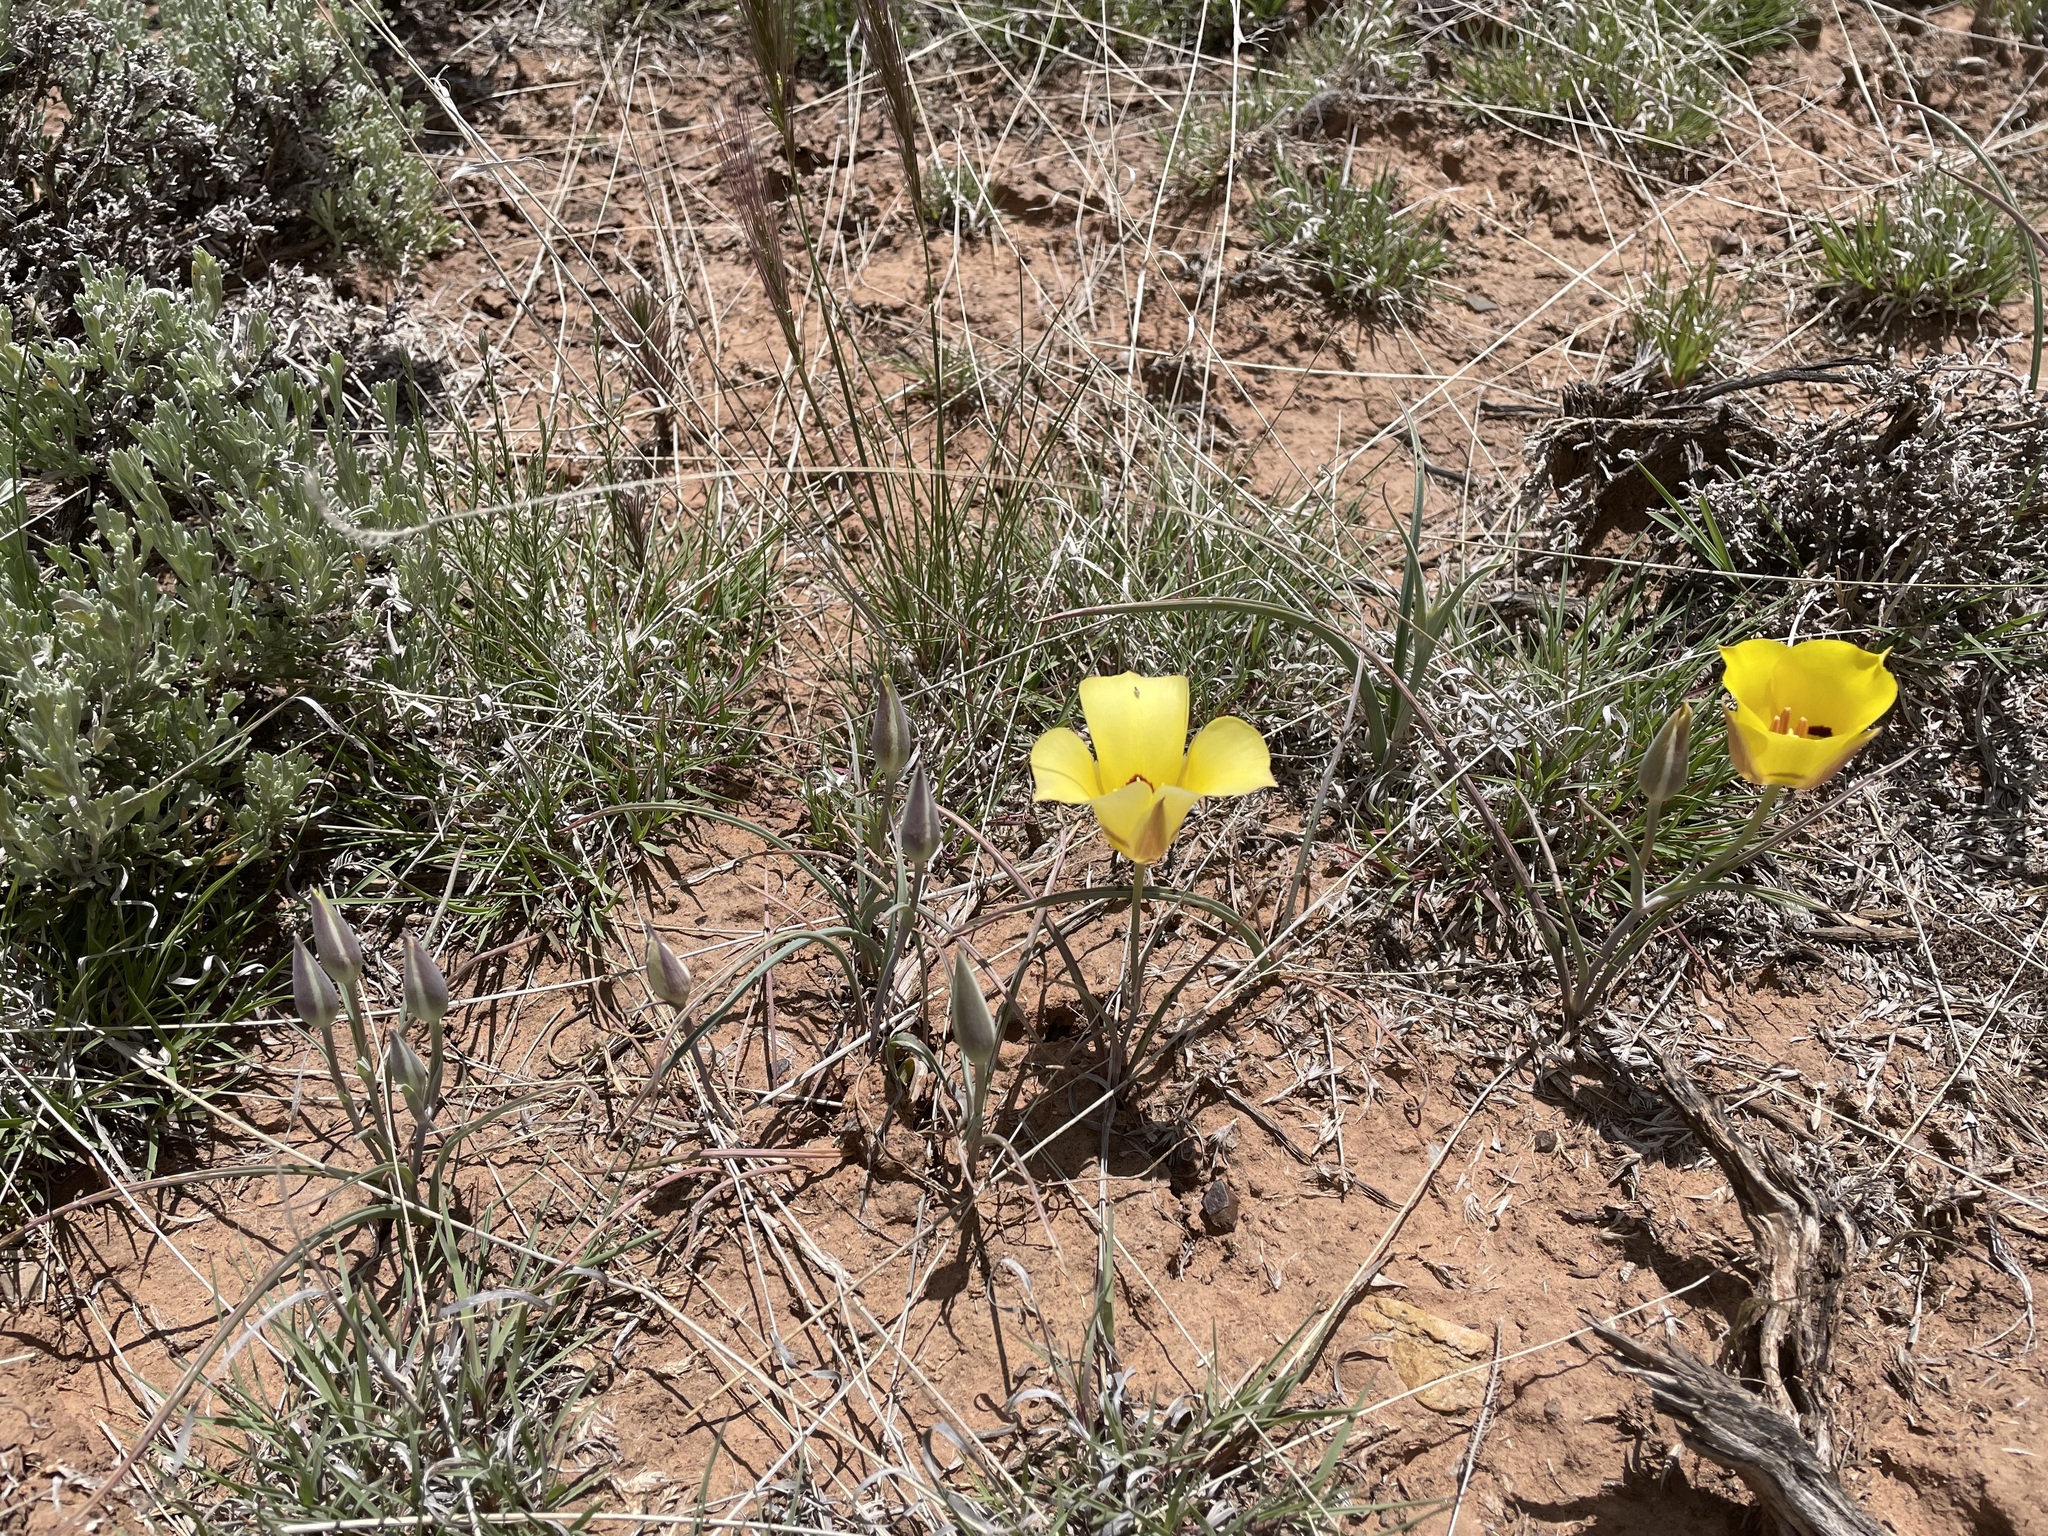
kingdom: Plantae
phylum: Tracheophyta
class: Liliopsida
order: Liliales
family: Liliaceae
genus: Calochortus
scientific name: Calochortus aureus
